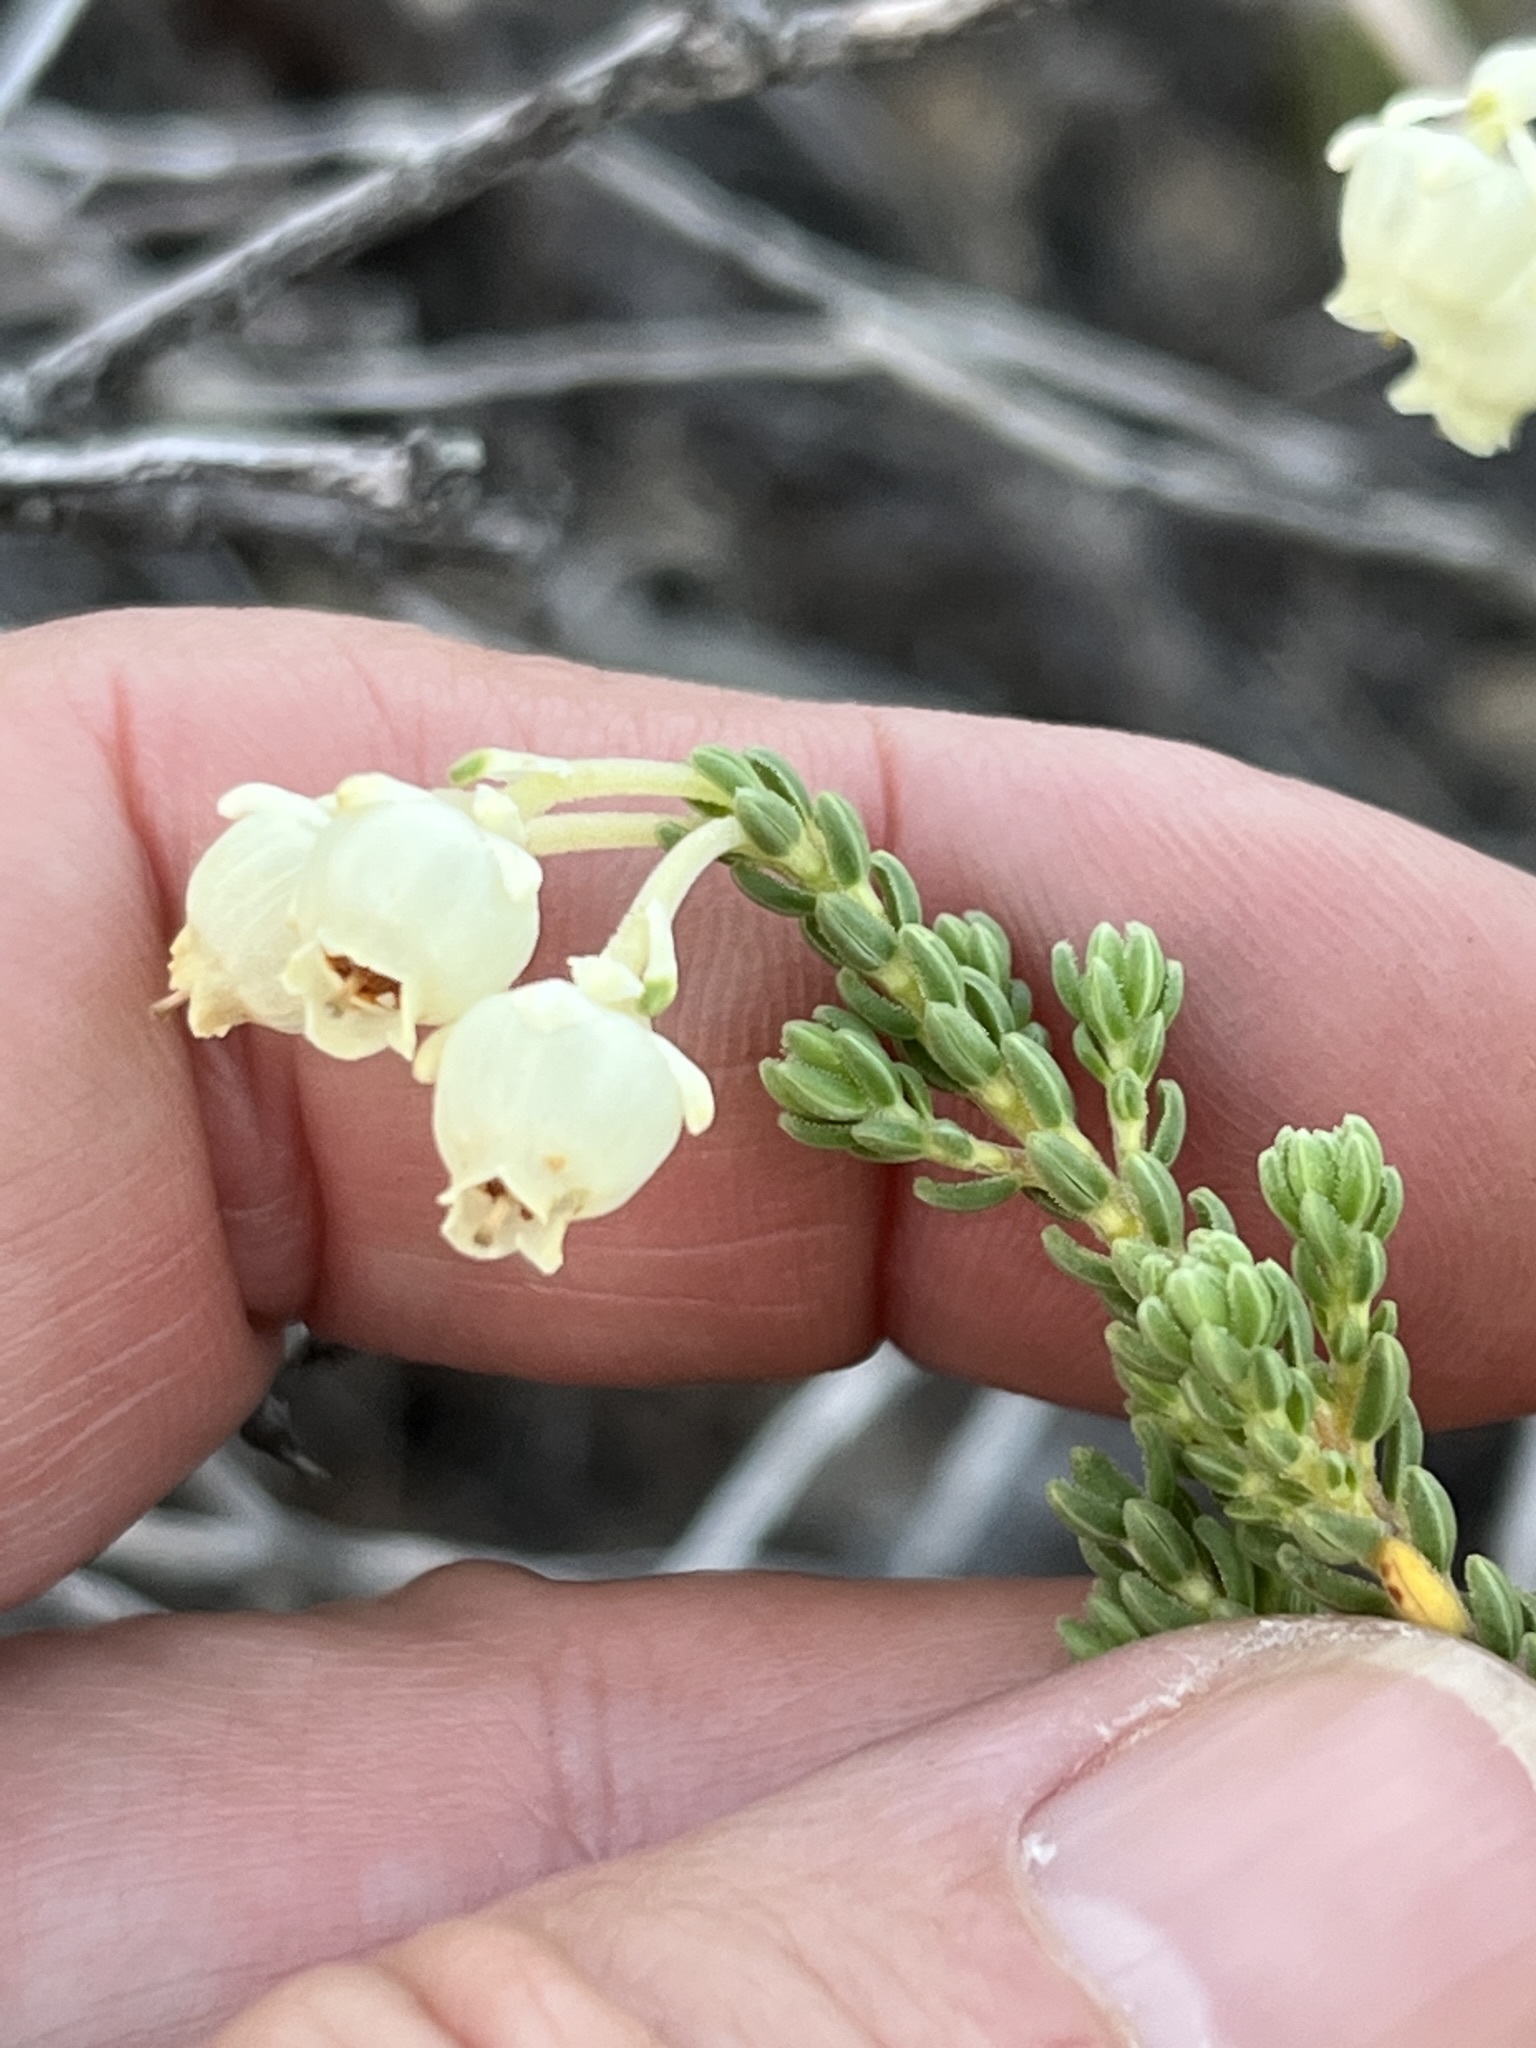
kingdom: Plantae
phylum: Tracheophyta
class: Magnoliopsida
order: Ericales
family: Ericaceae
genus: Erica
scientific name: Erica spectabilis
